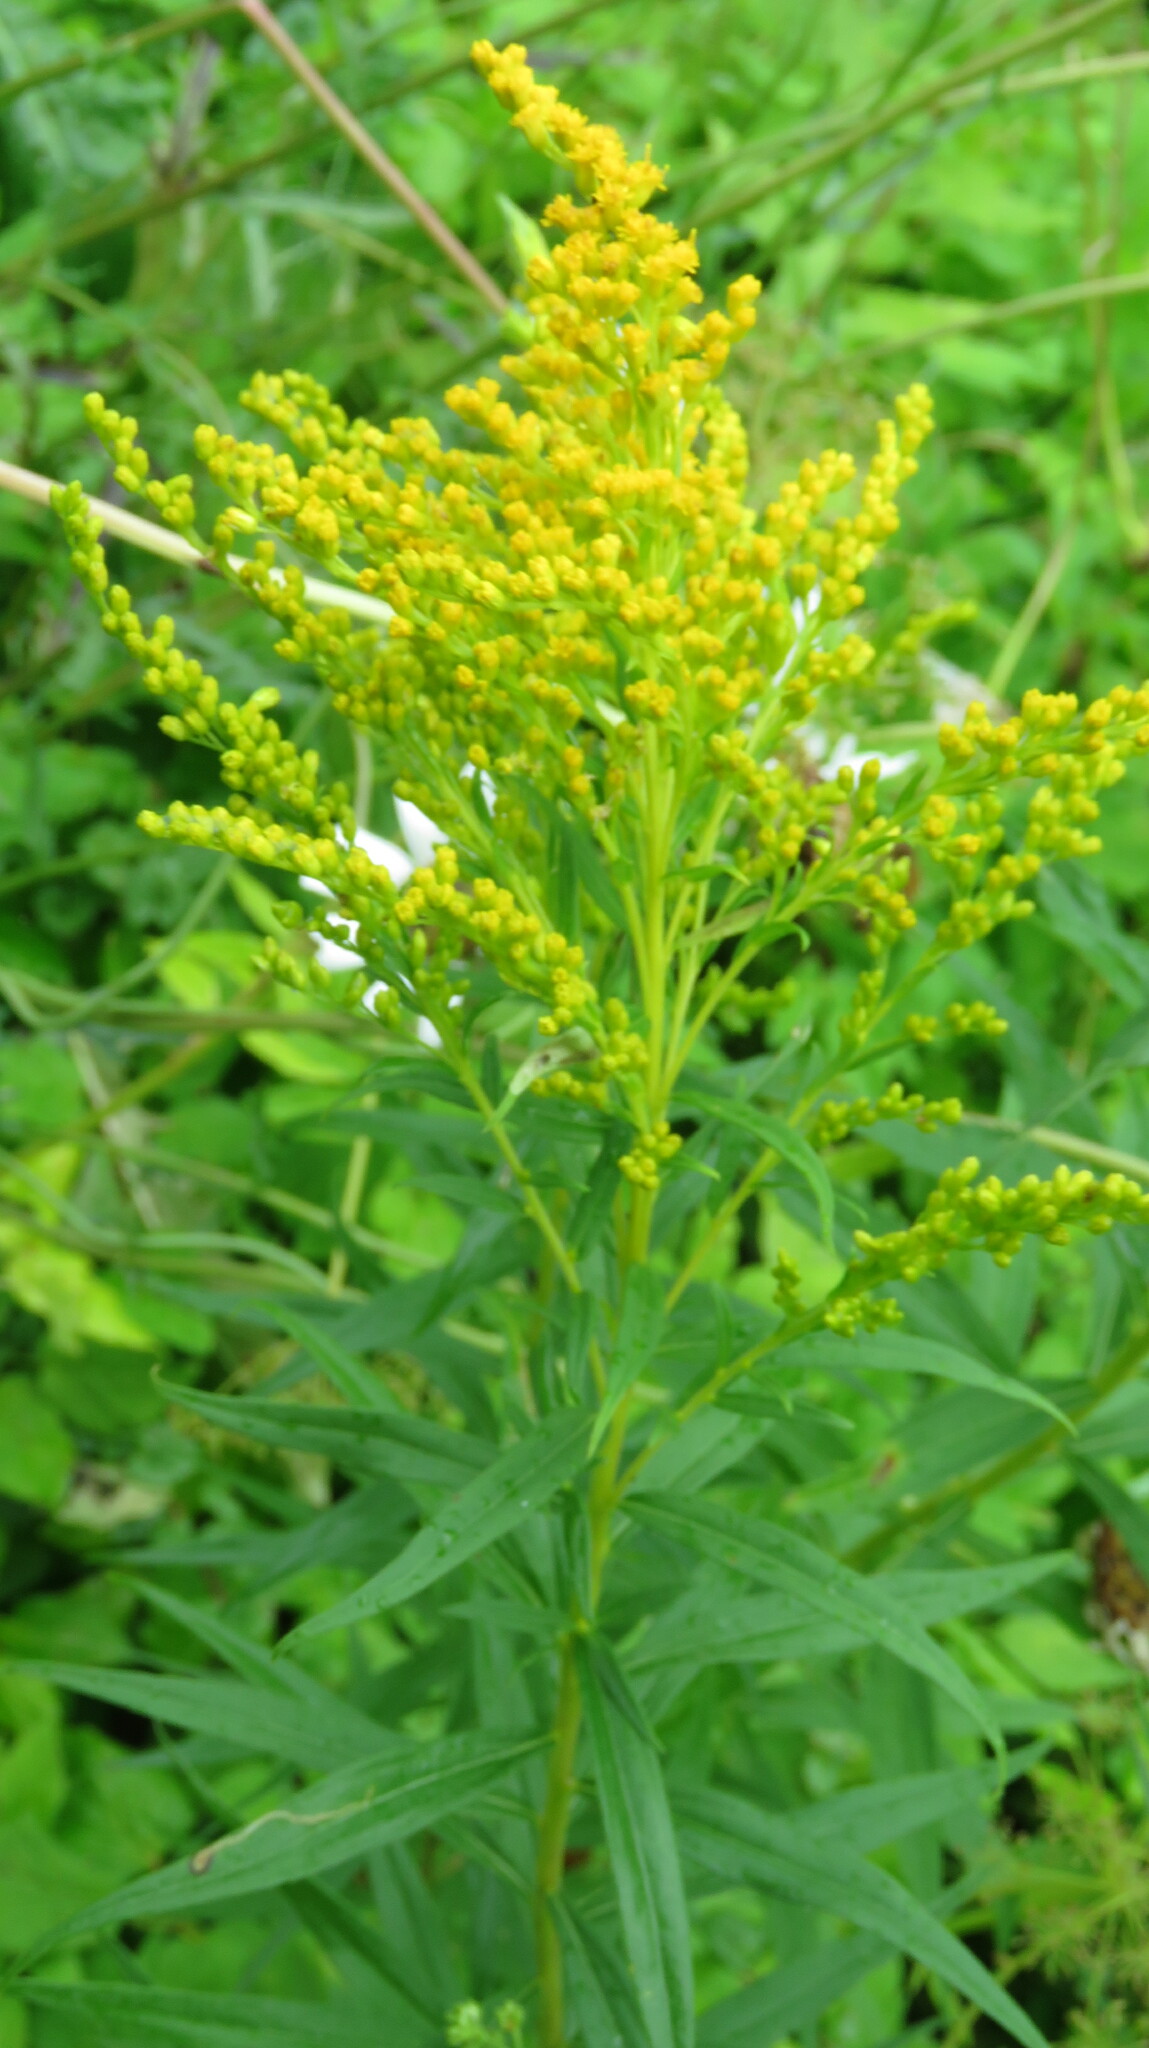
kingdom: Plantae
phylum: Tracheophyta
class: Magnoliopsida
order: Asterales
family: Asteraceae
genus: Solidago
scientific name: Solidago canadensis
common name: Canada goldenrod
